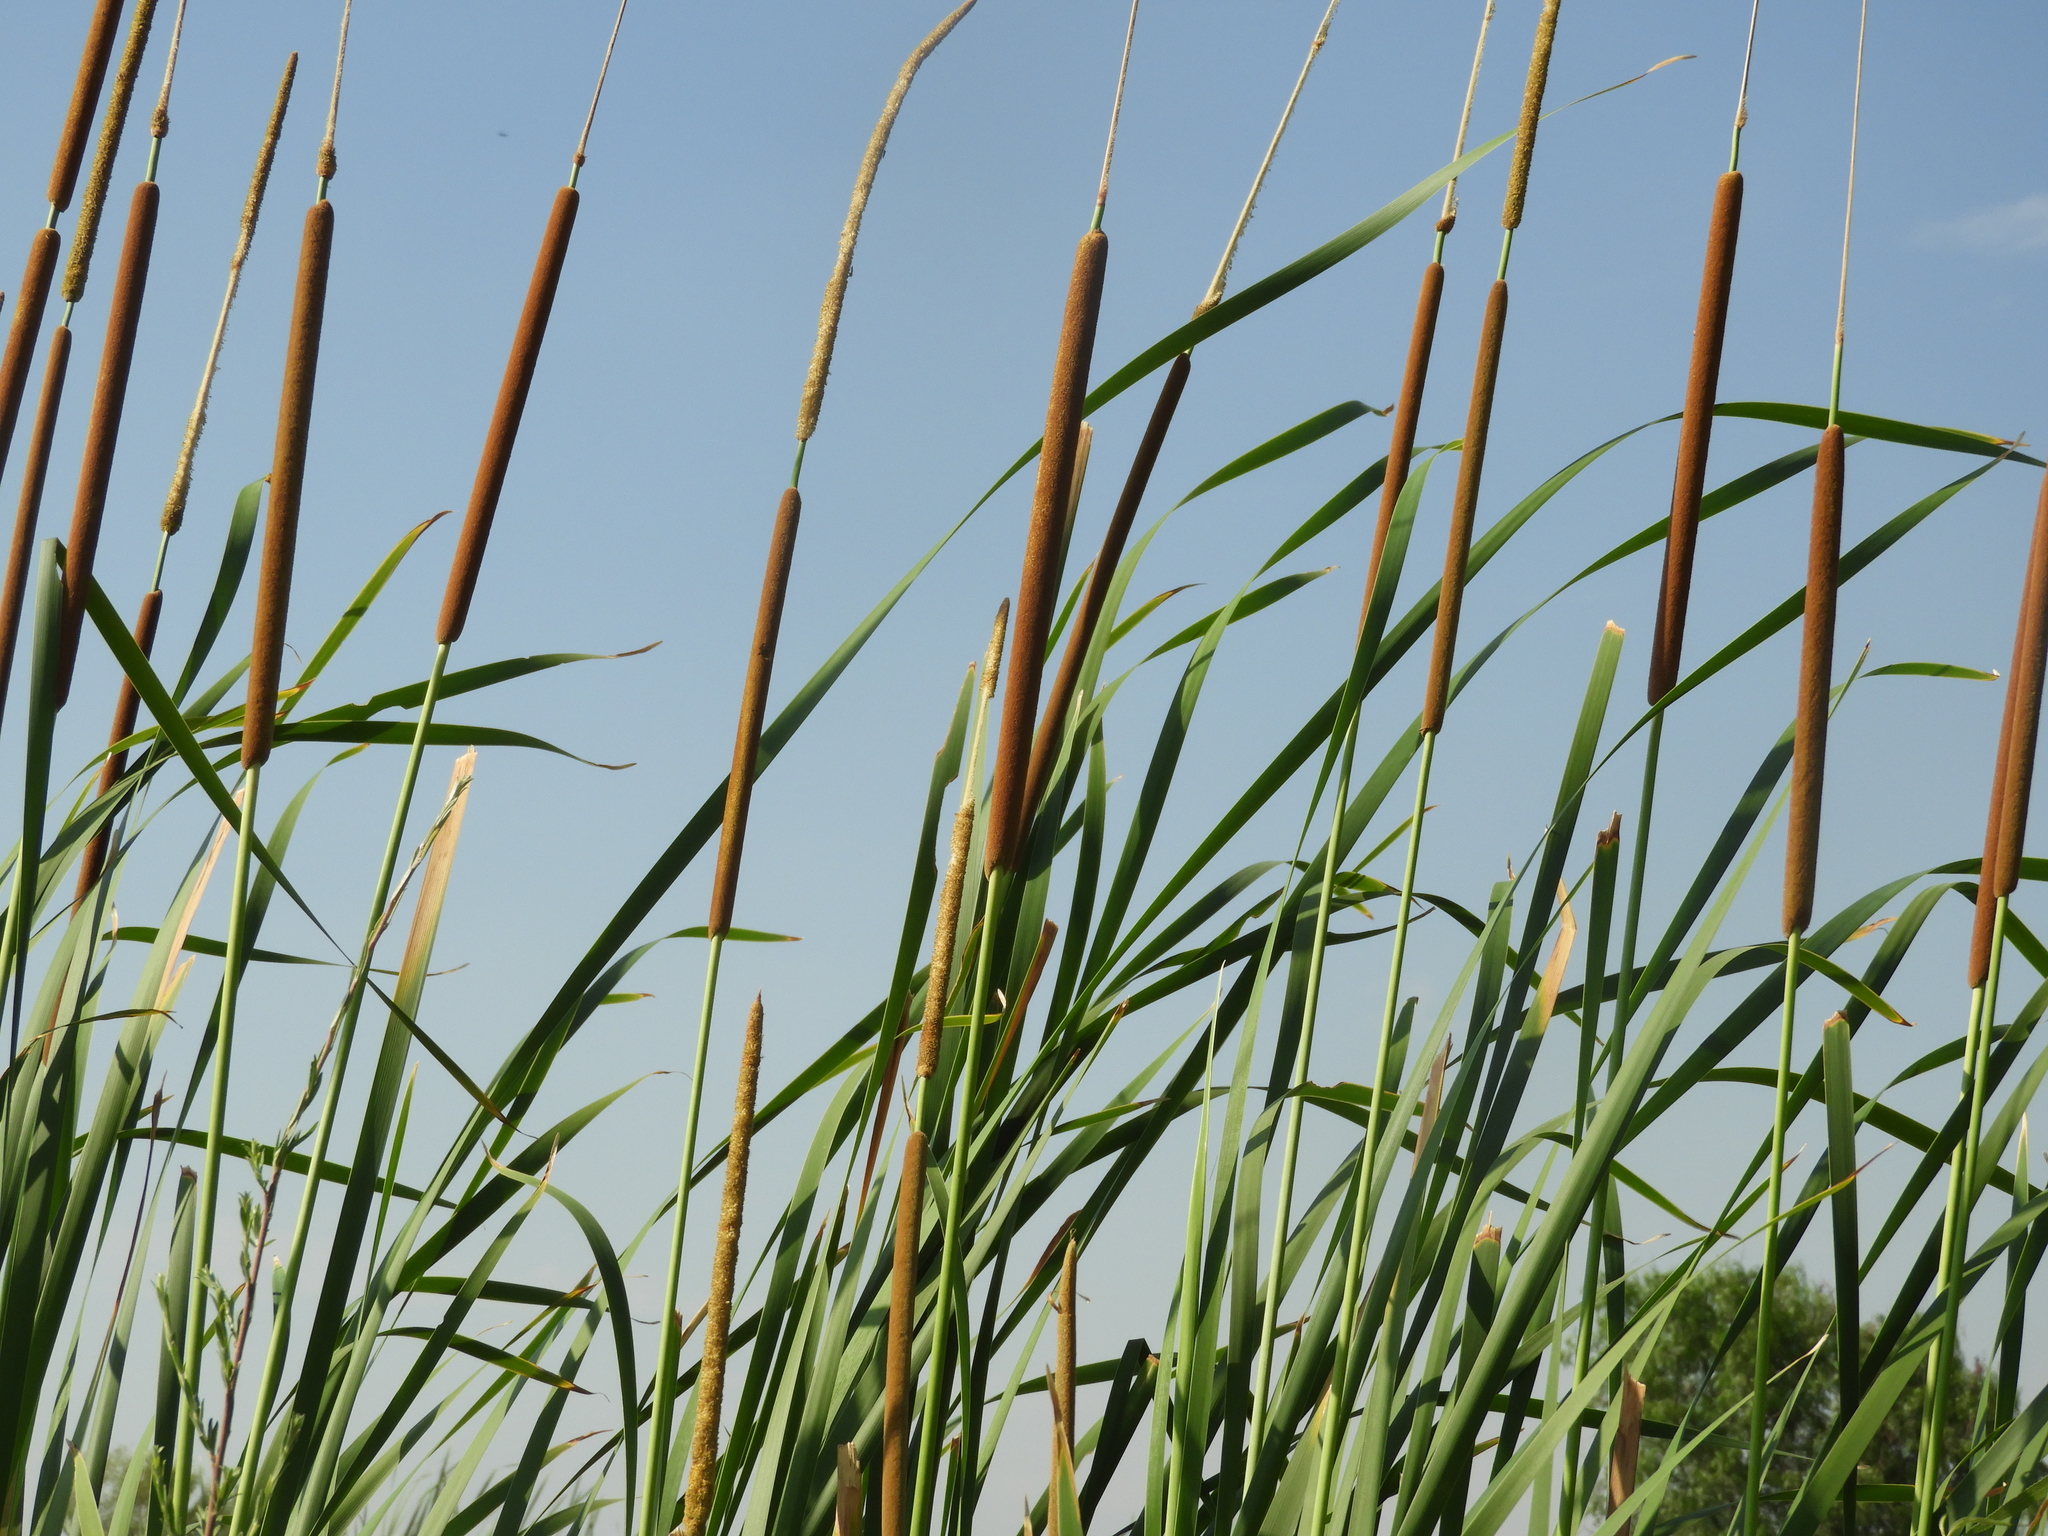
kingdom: Plantae
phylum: Tracheophyta
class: Liliopsida
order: Poales
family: Typhaceae
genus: Typha
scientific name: Typha domingensis
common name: Southern cattail
